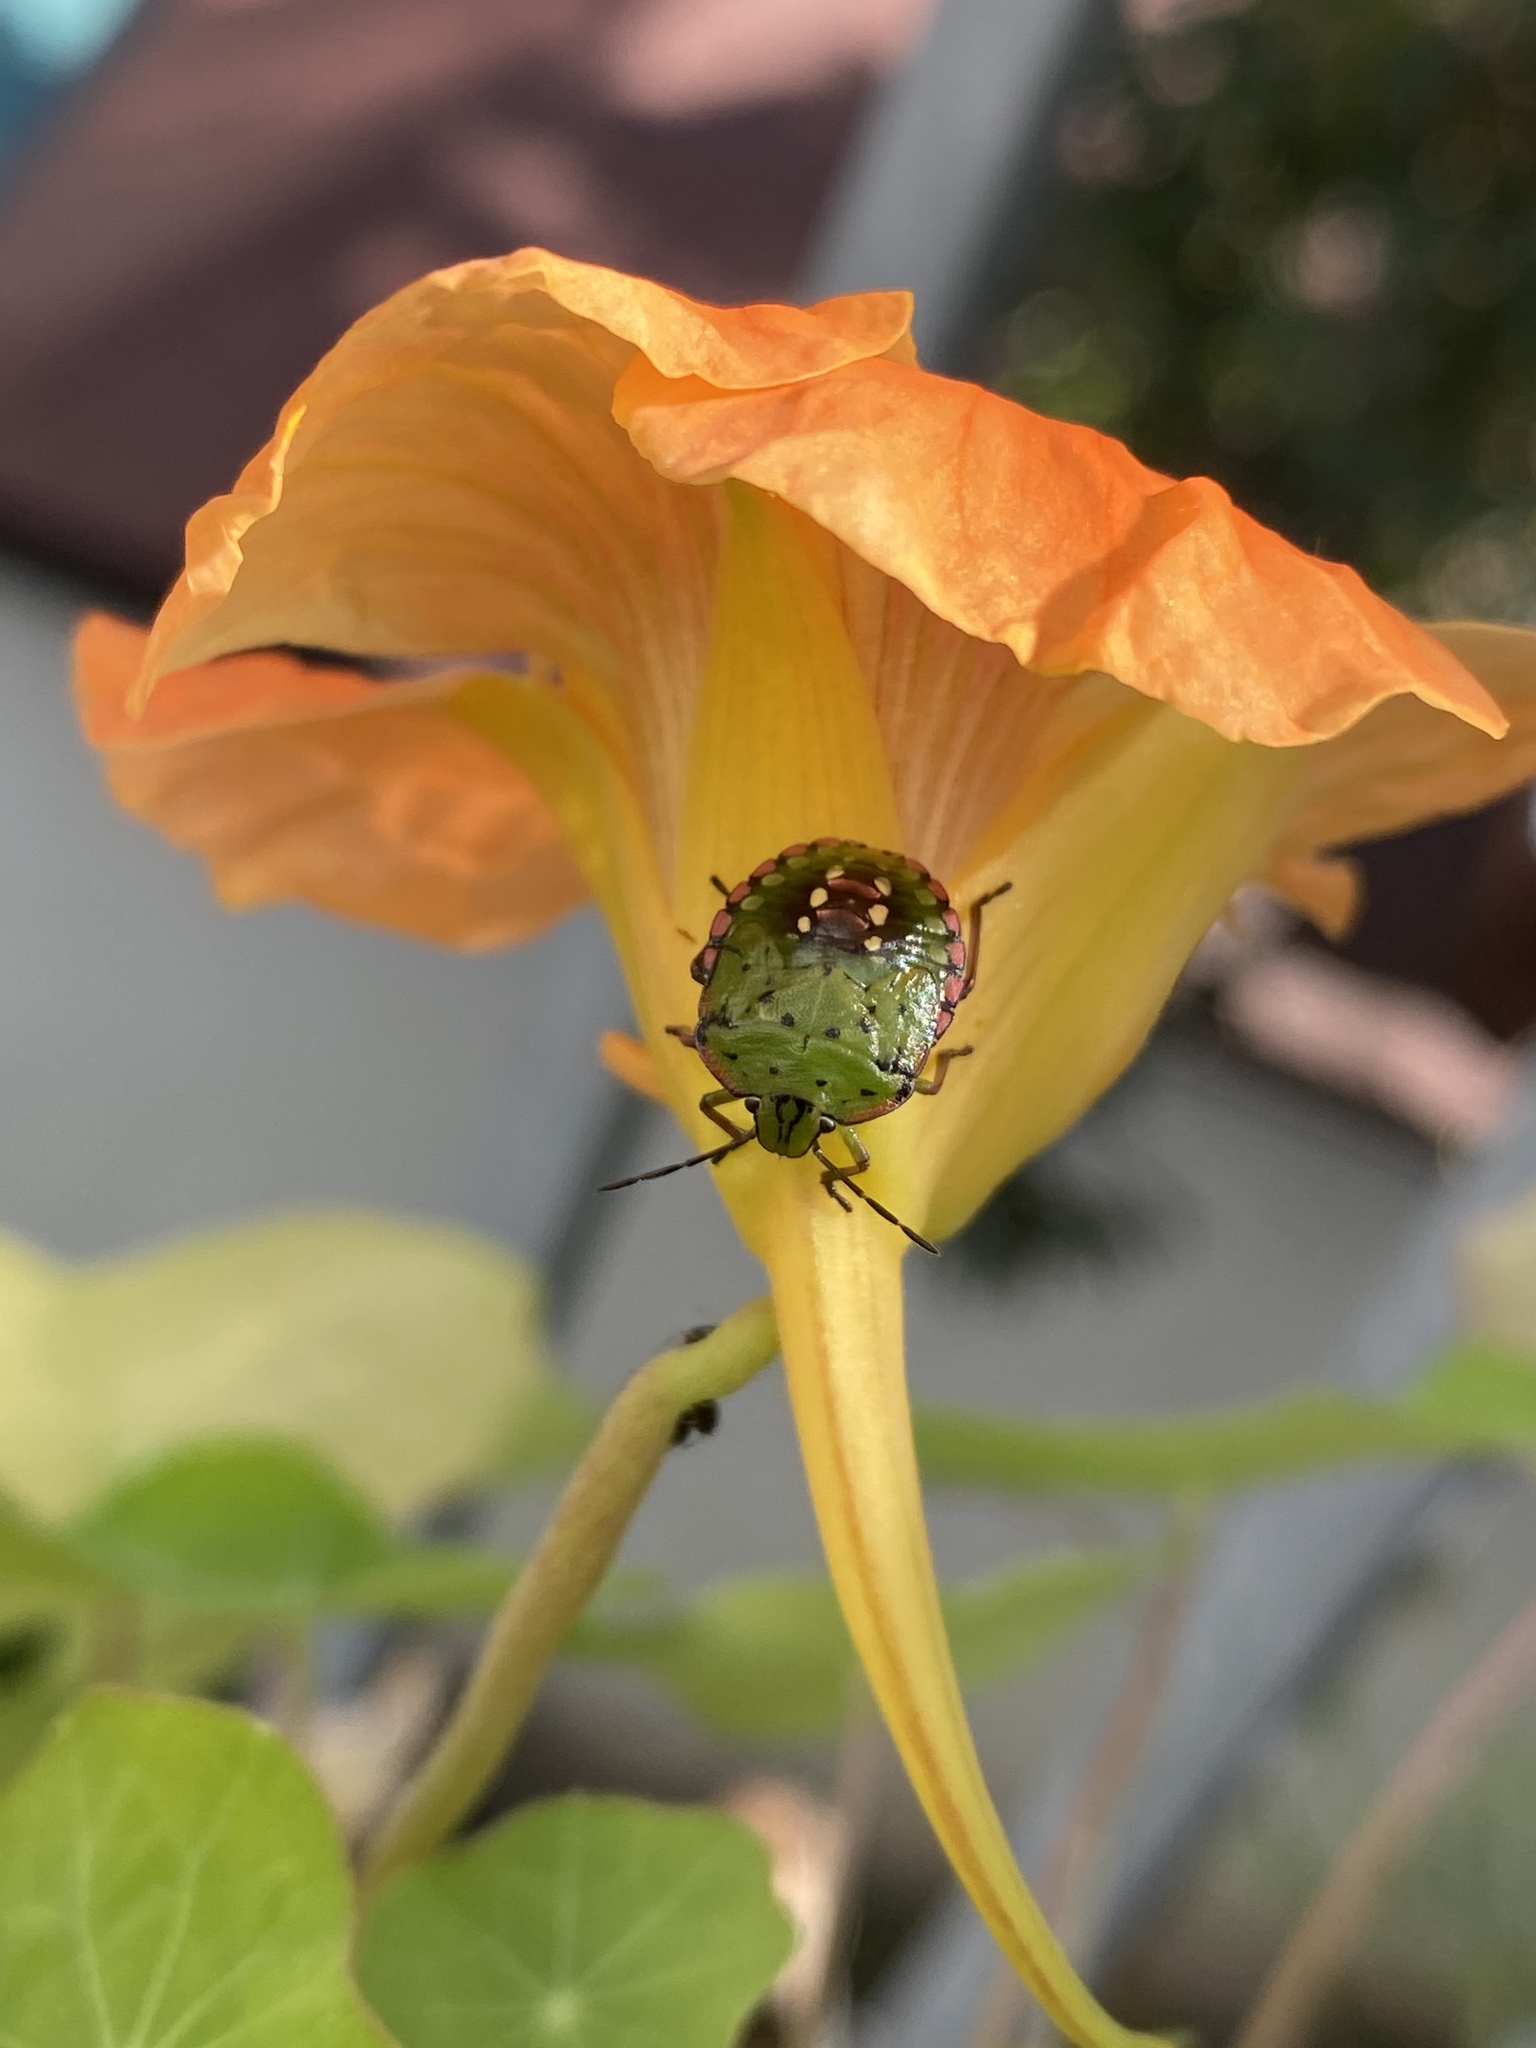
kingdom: Animalia
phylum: Arthropoda
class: Insecta
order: Hemiptera
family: Pentatomidae
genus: Nezara
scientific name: Nezara viridula
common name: Southern green stink bug
